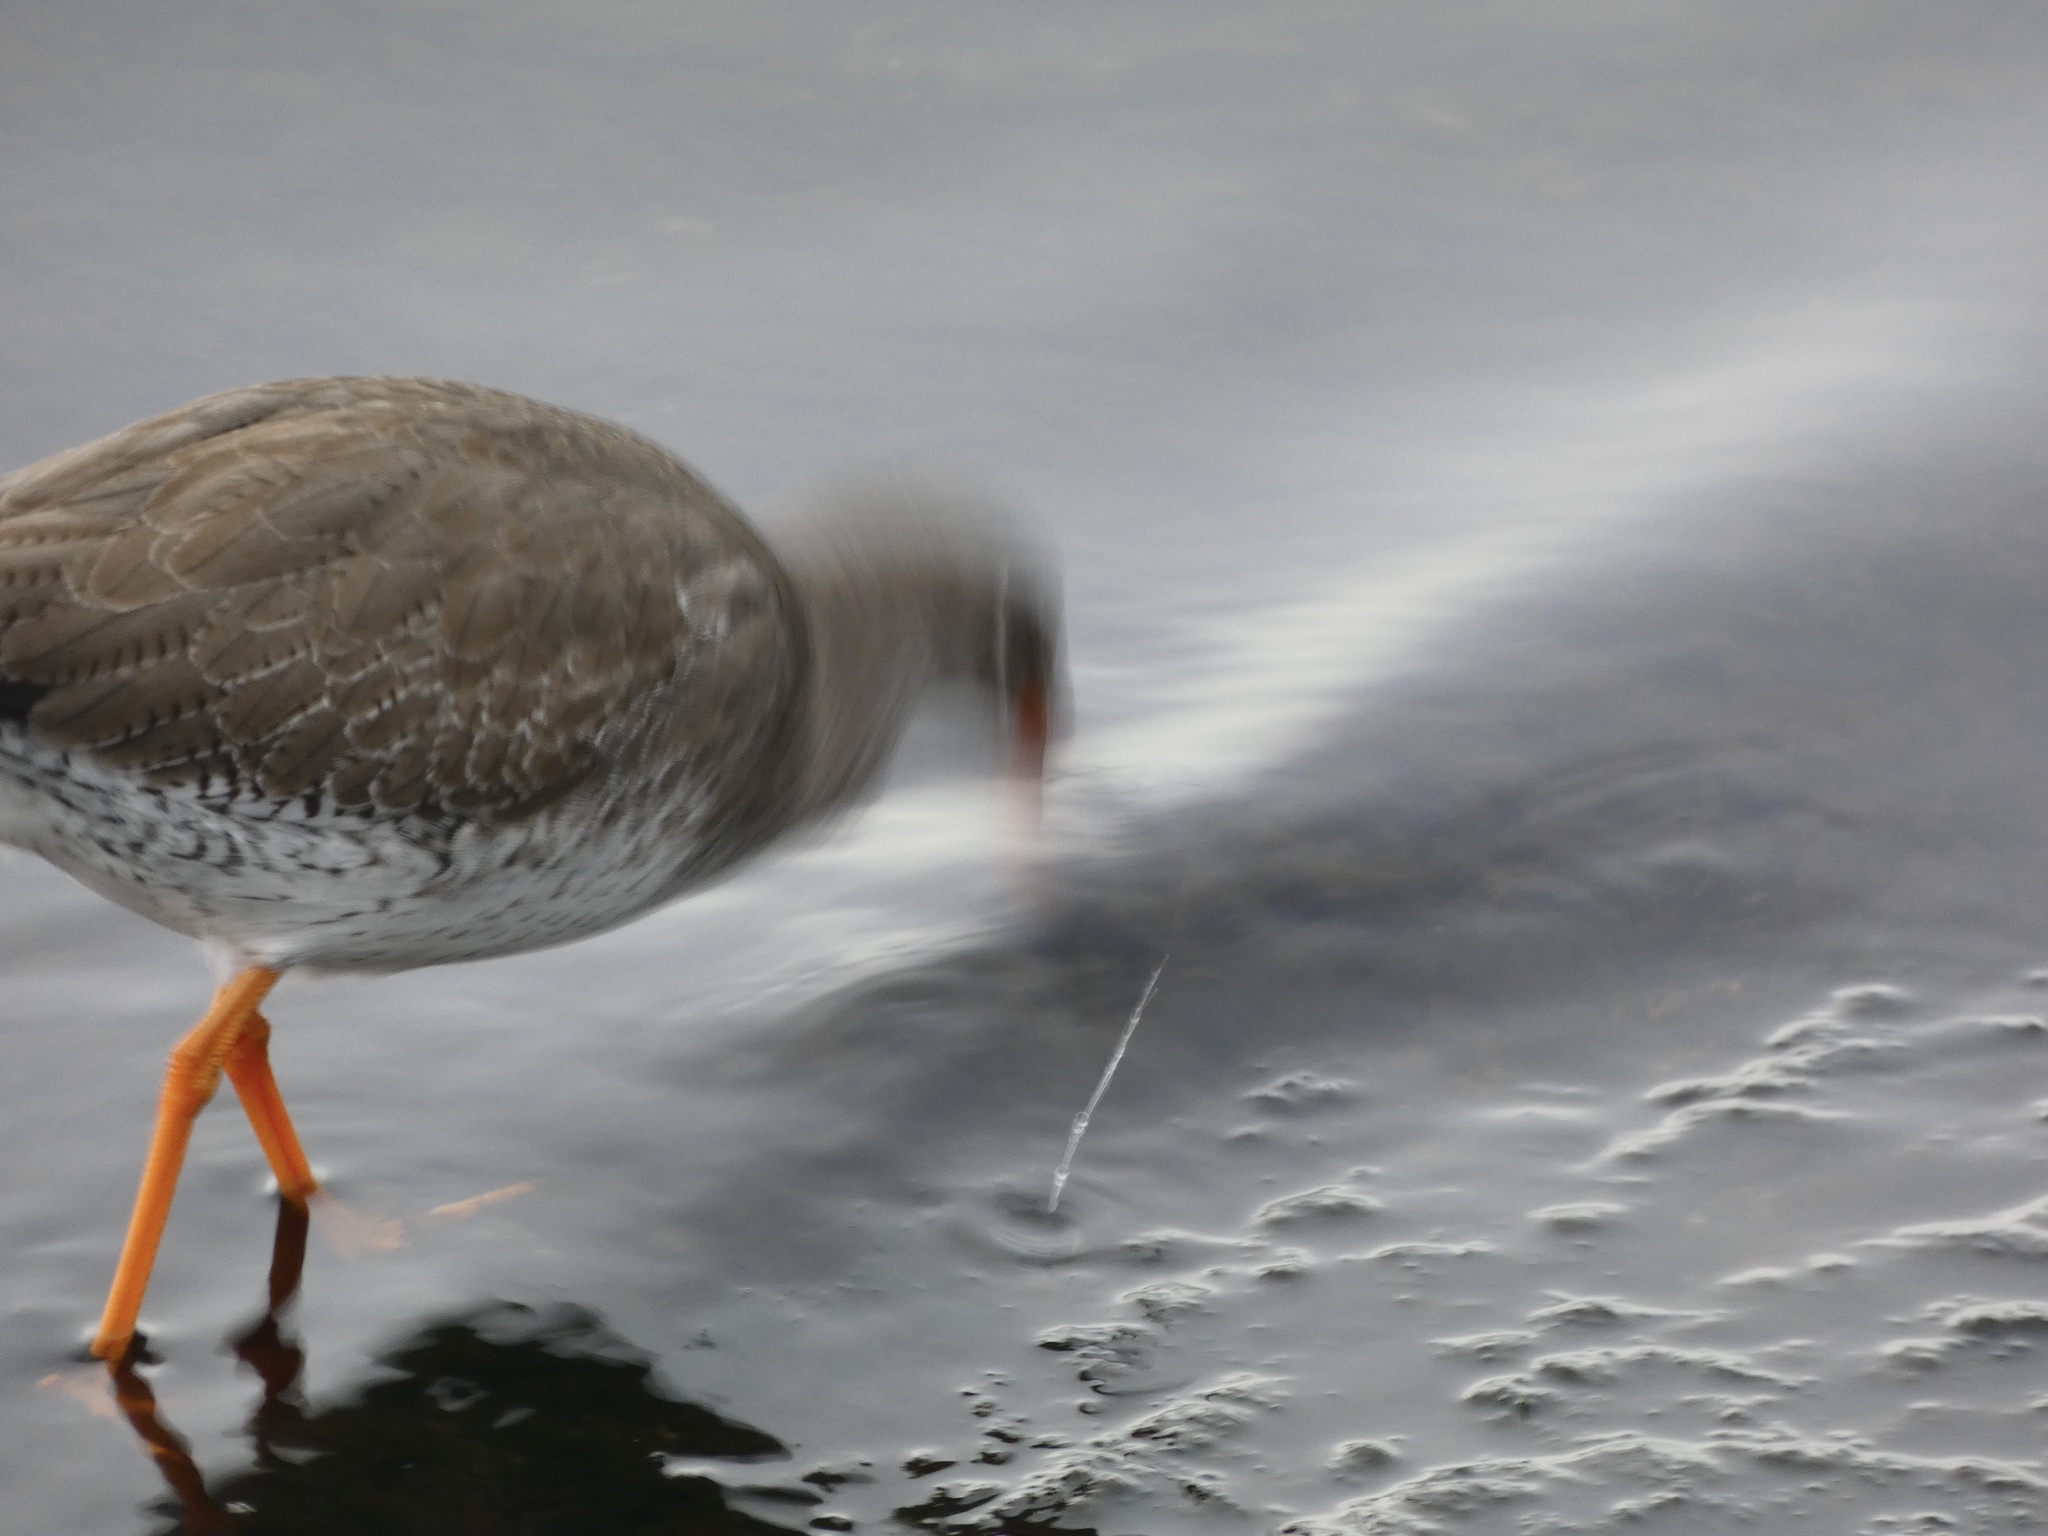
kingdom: Animalia
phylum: Chordata
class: Aves
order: Charadriiformes
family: Scolopacidae
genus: Tringa
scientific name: Tringa totanus
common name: Common redshank
